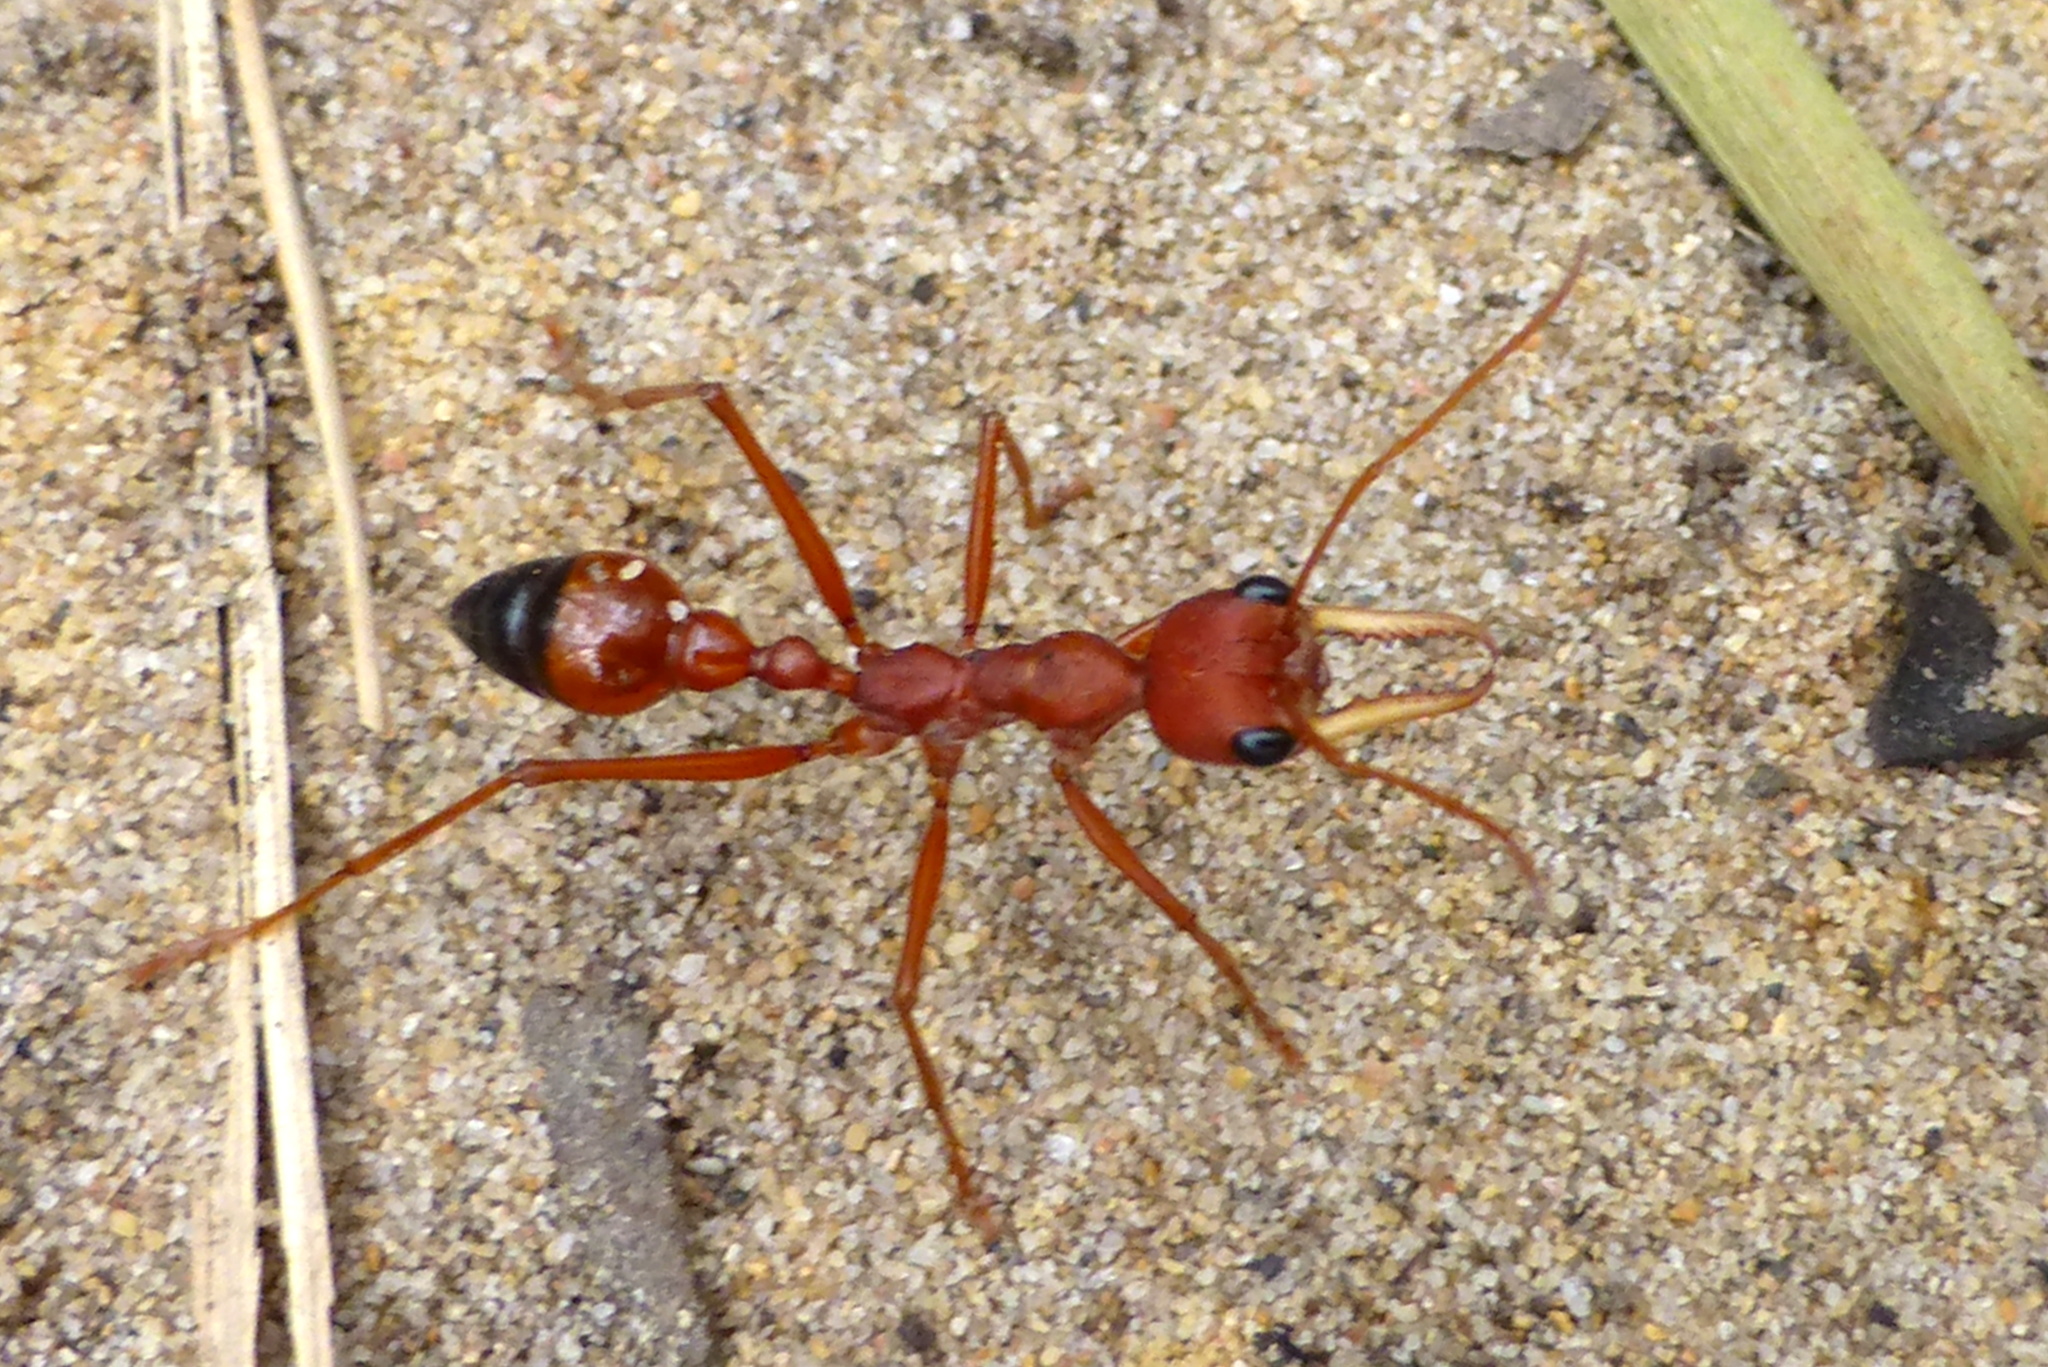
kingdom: Animalia
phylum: Arthropoda
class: Insecta
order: Hymenoptera
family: Formicidae
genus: Myrmecia
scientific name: Myrmecia gulosa
